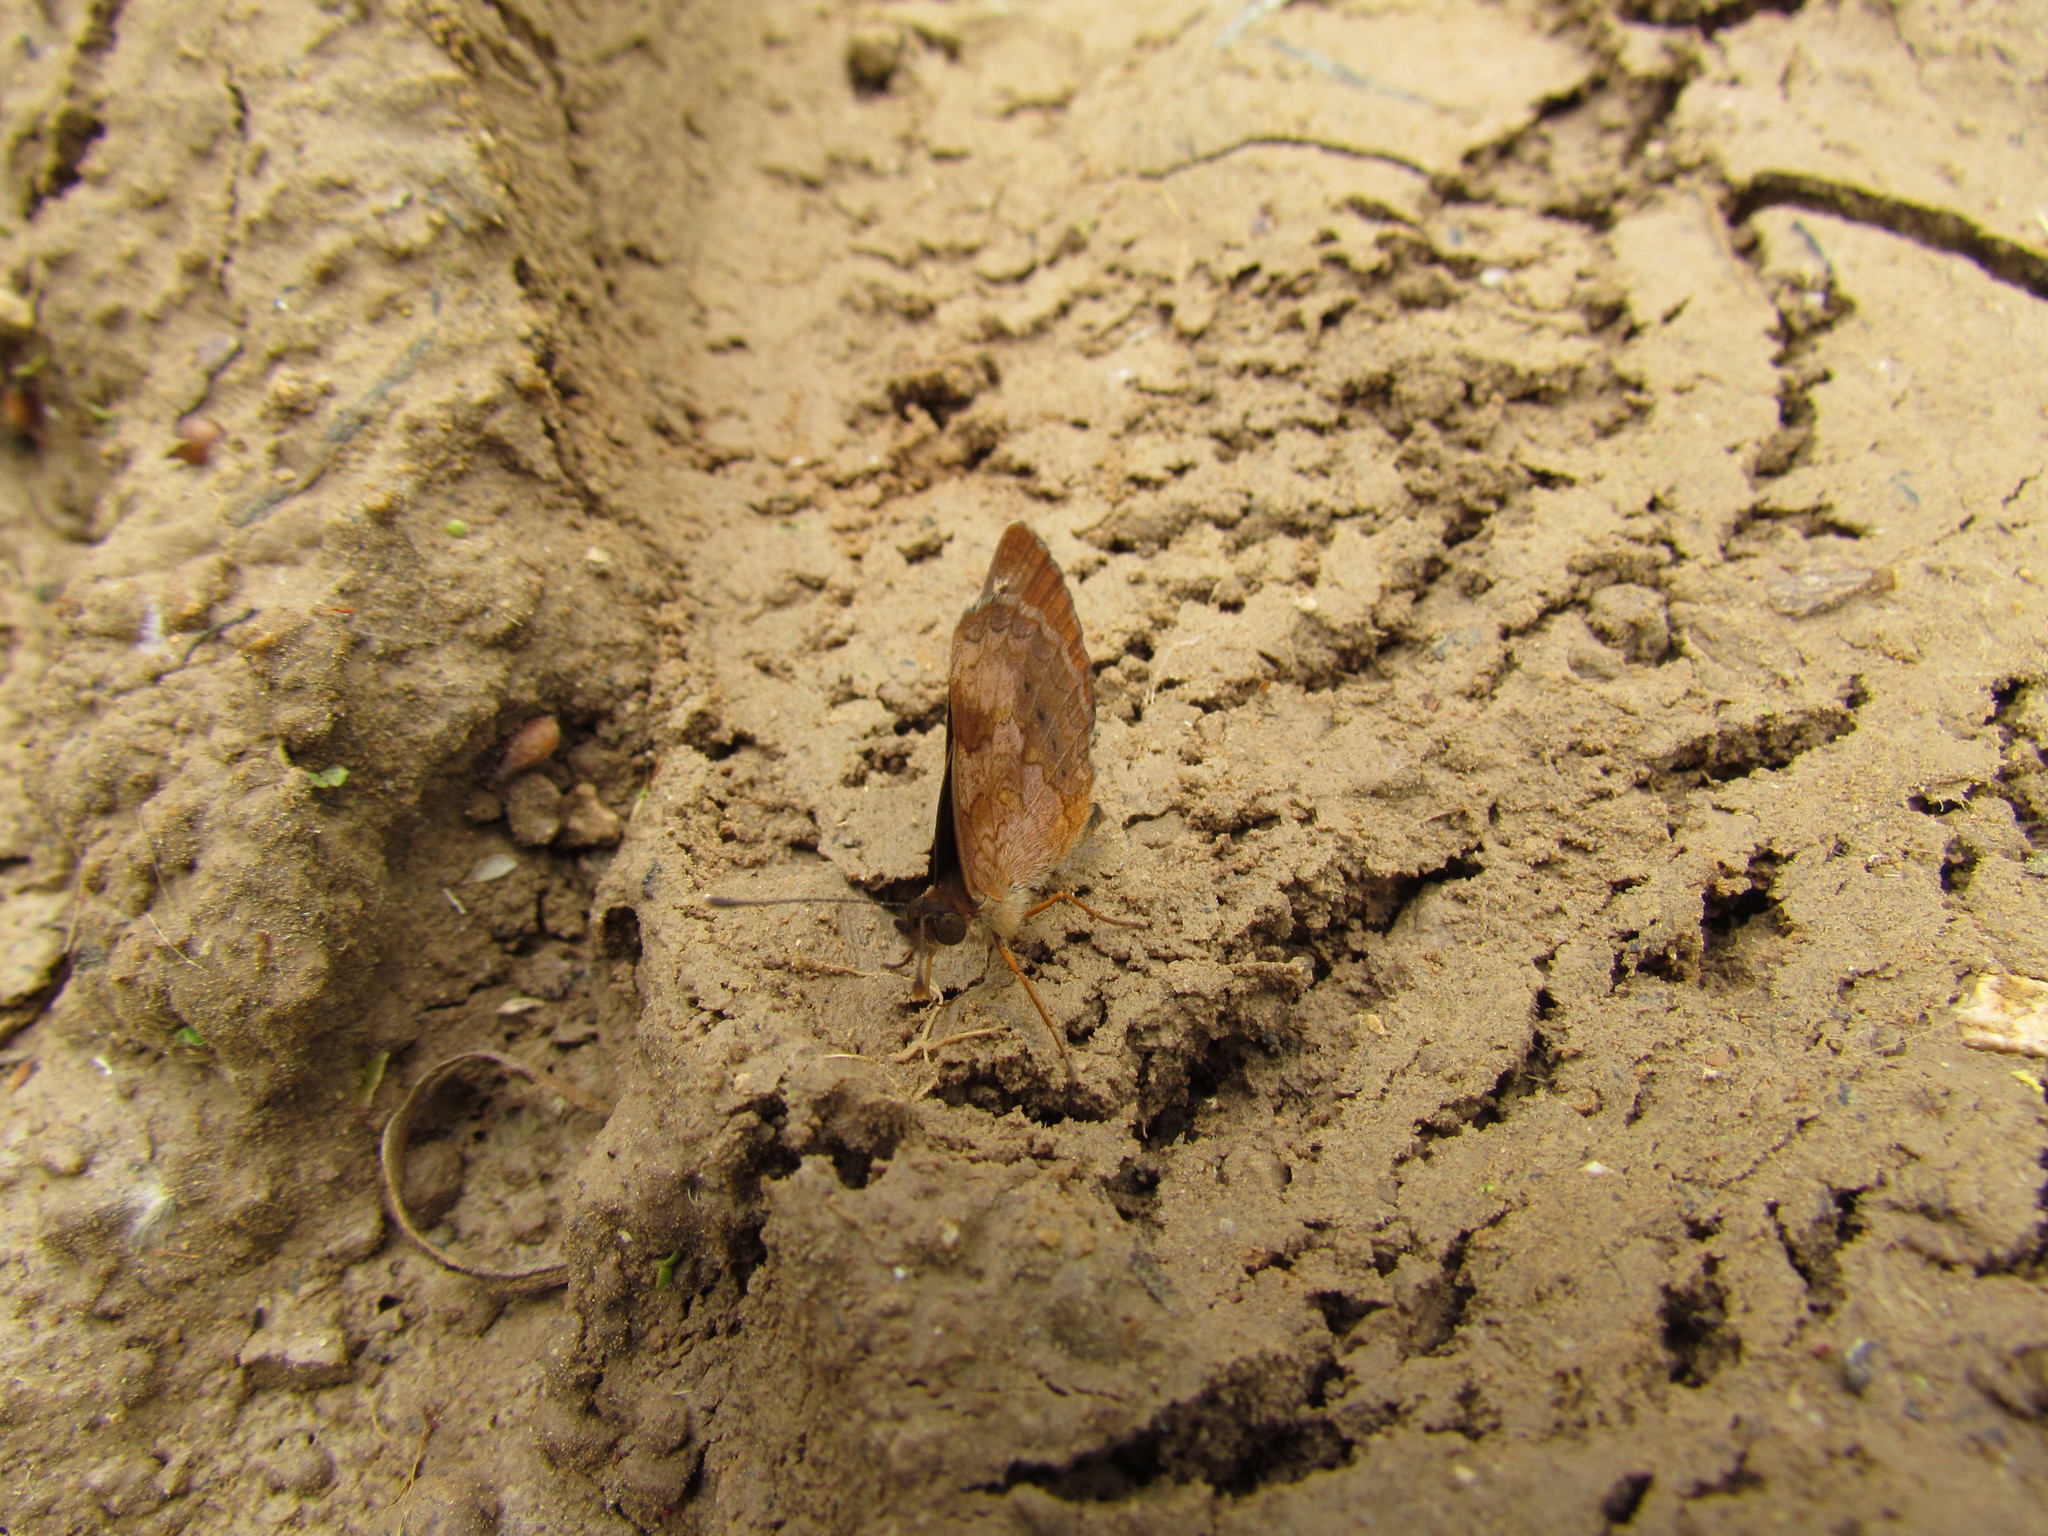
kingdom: Animalia
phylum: Arthropoda
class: Insecta
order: Lepidoptera
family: Nymphalidae
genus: Ortilia
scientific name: Ortilia velica
